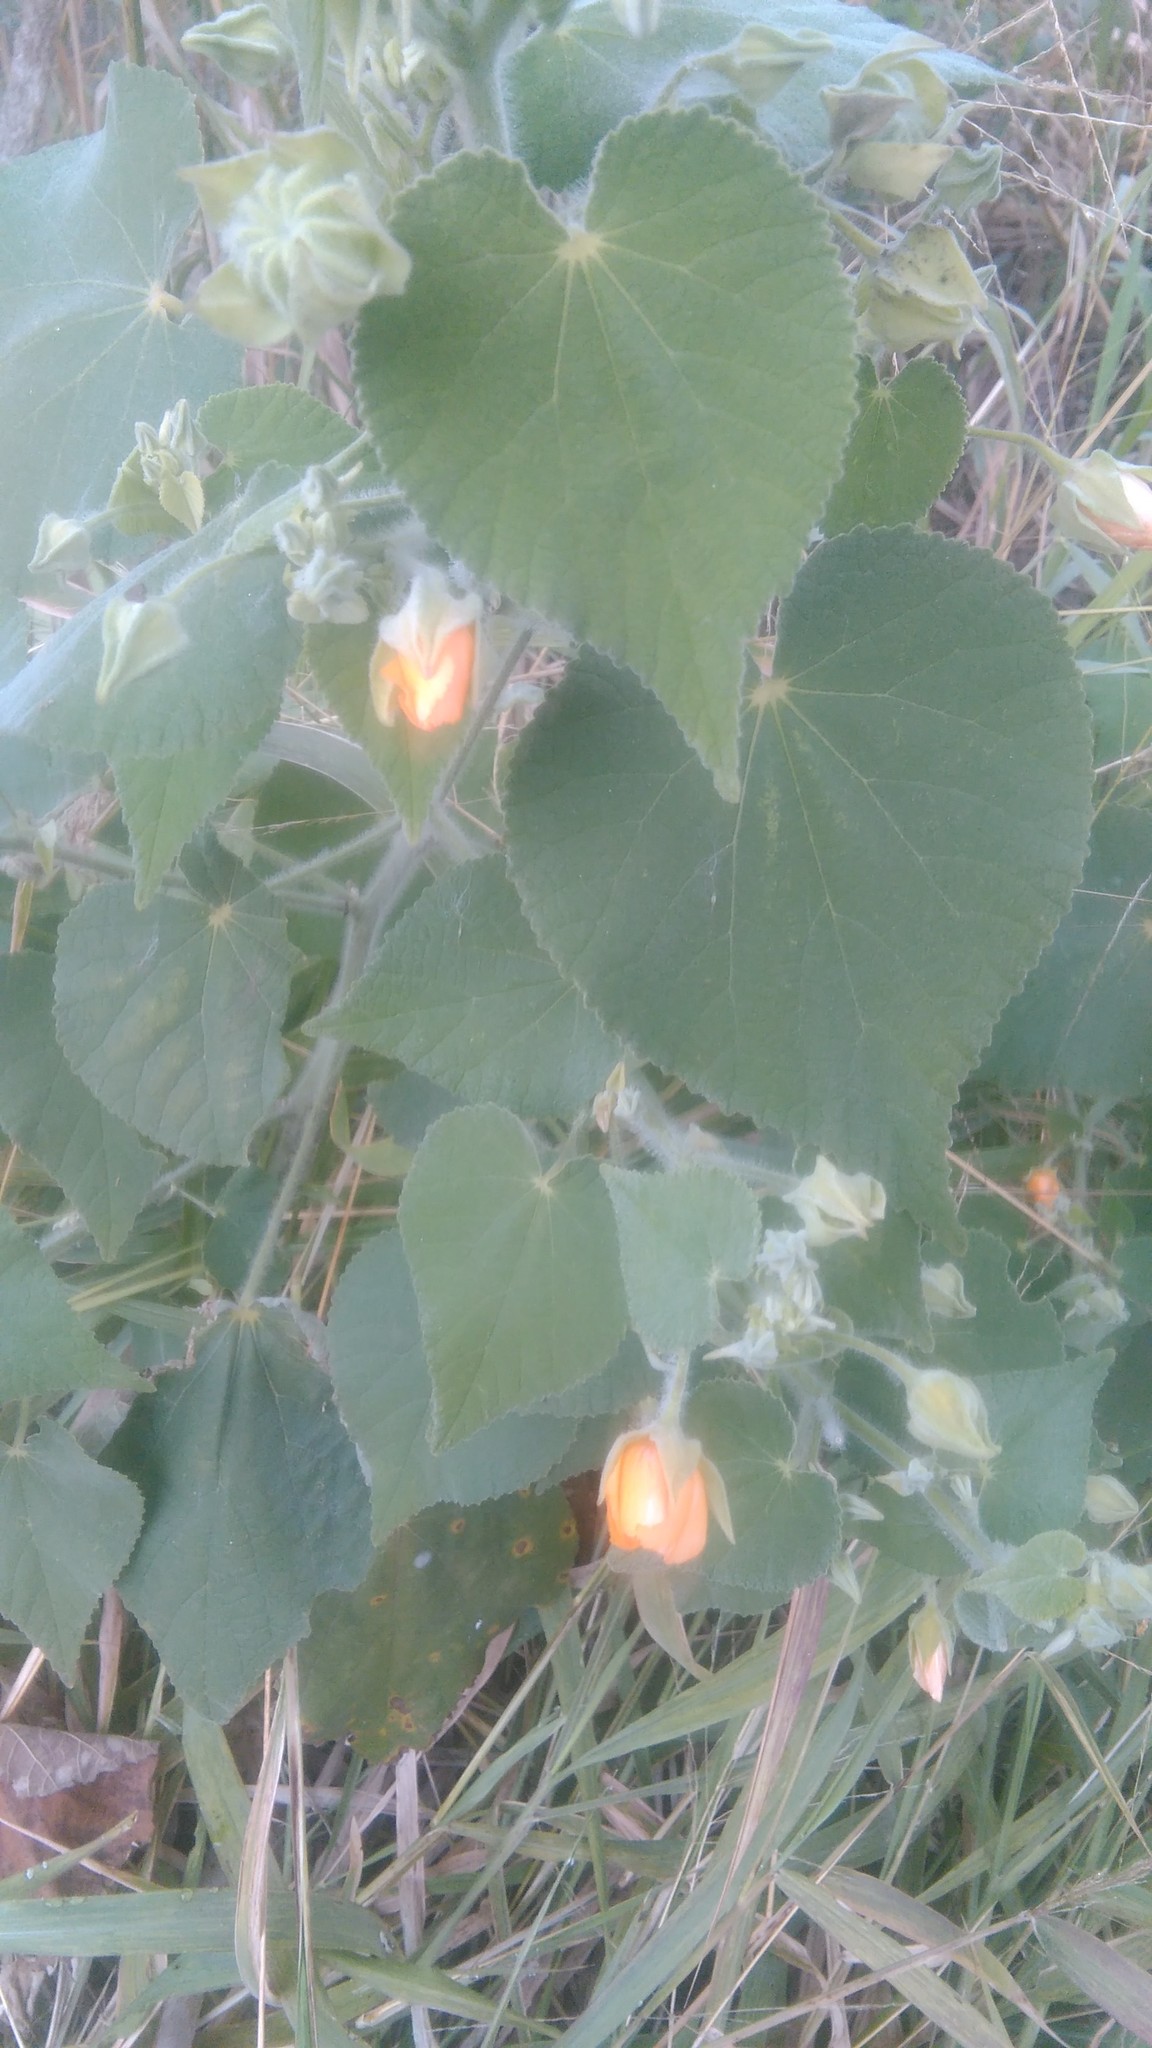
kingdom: Plantae
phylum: Tracheophyta
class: Magnoliopsida
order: Malvales
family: Malvaceae
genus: Abutilon
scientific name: Abutilon grandifolium
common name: Hairy abutilon
